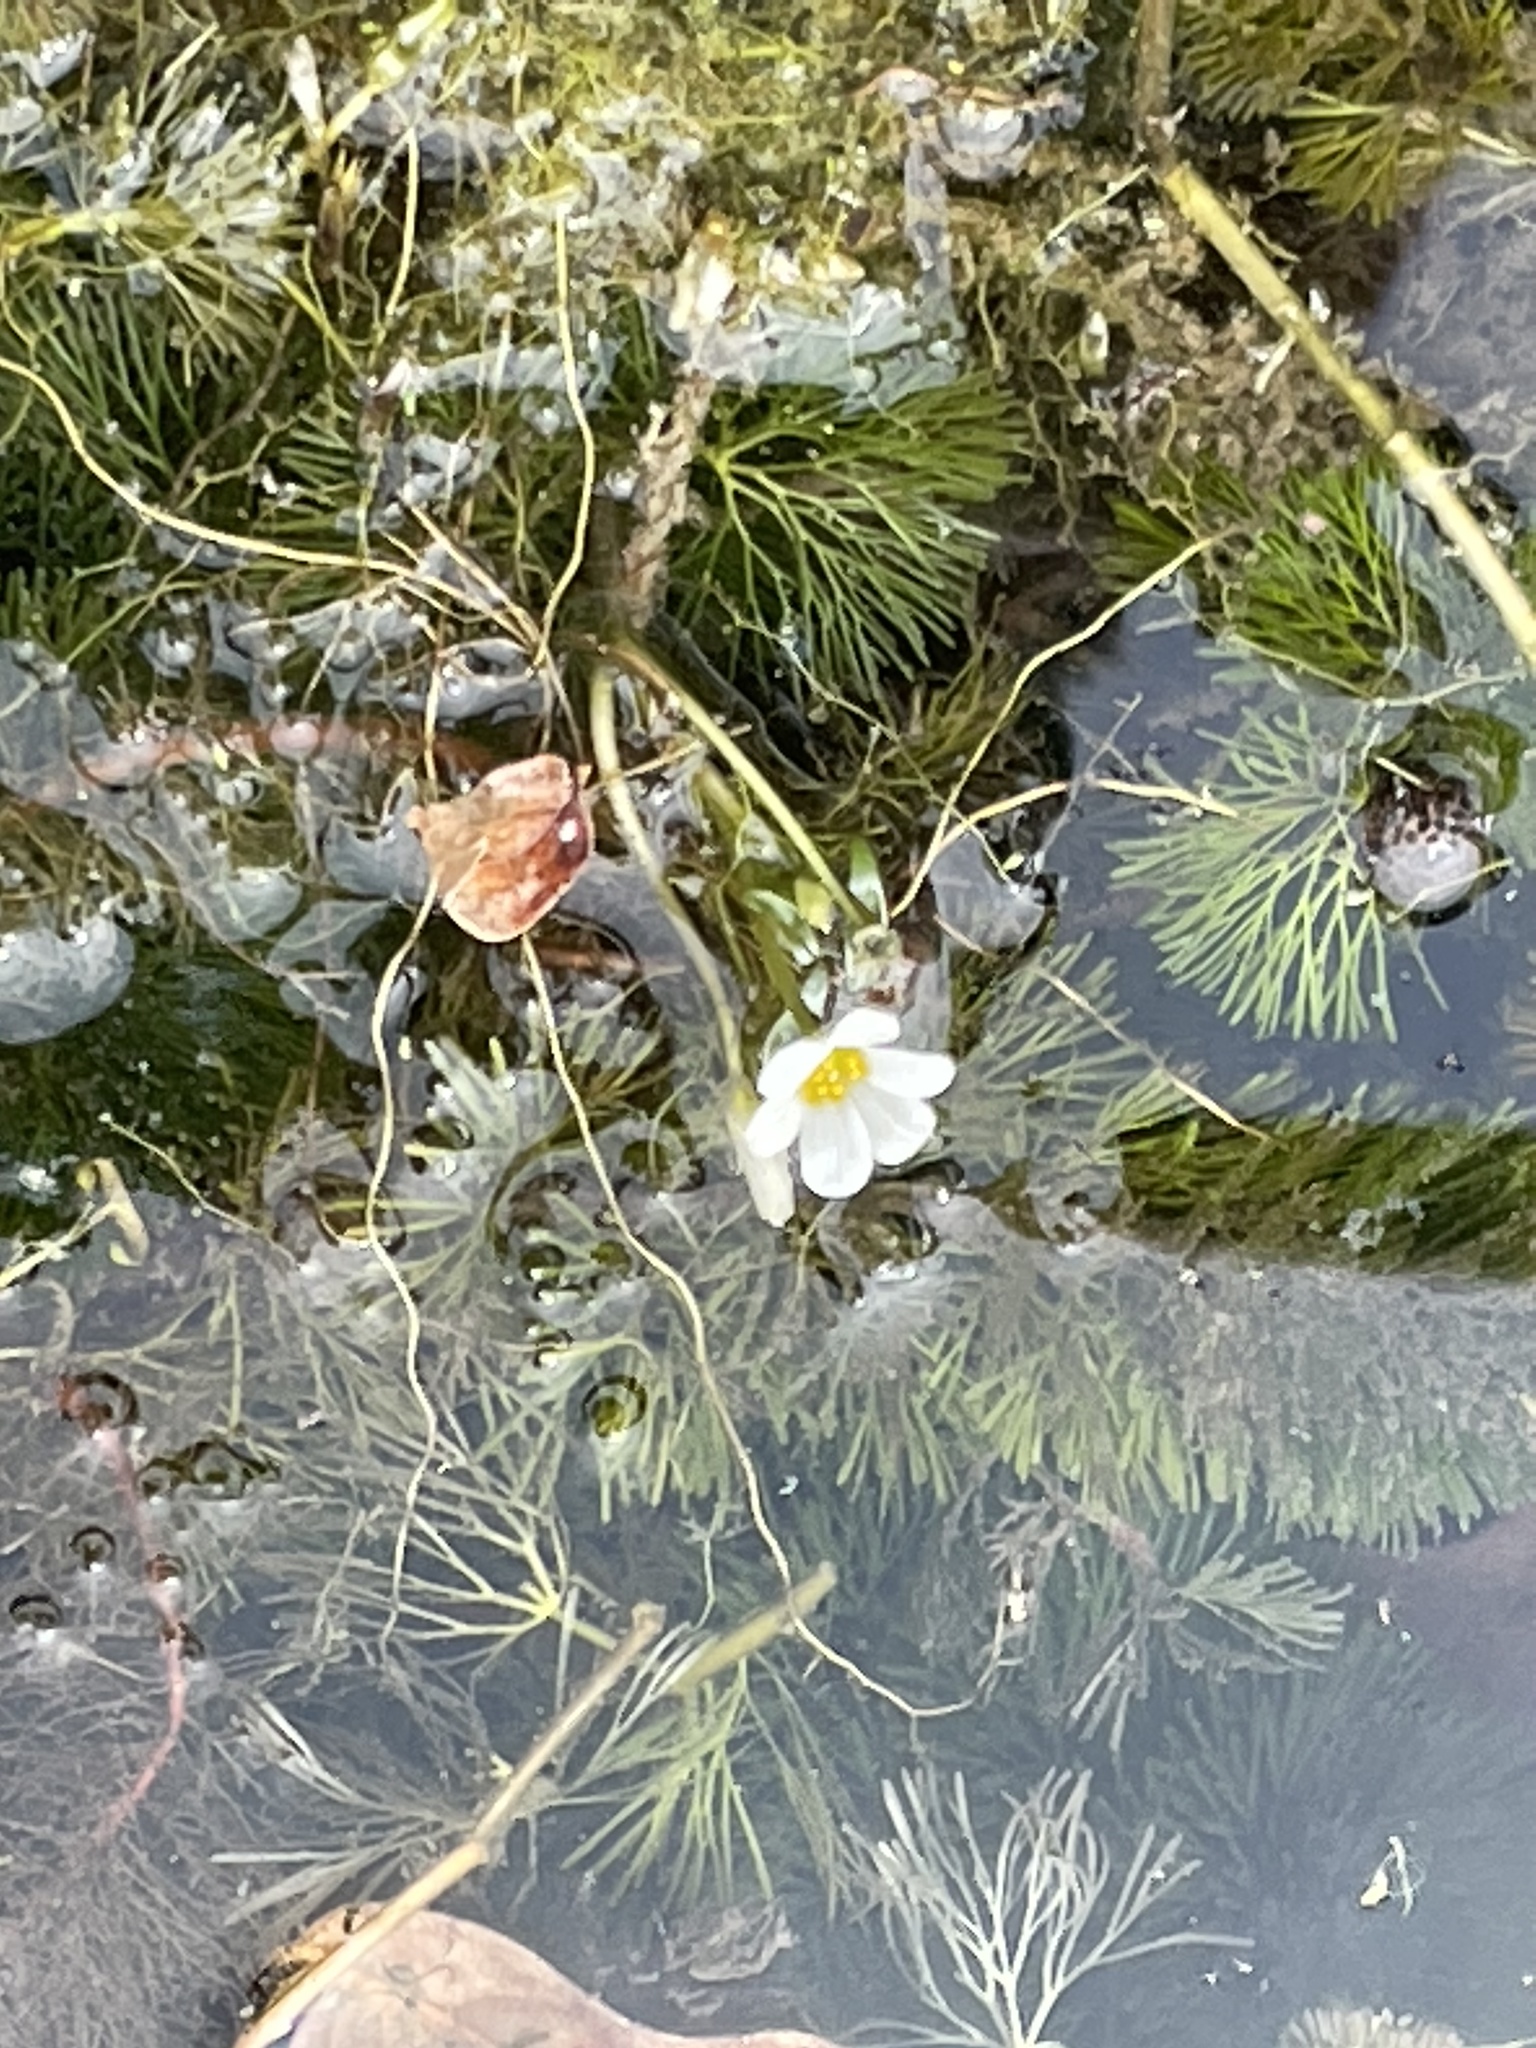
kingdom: Plantae
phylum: Tracheophyta
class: Magnoliopsida
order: Nymphaeales
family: Cabombaceae
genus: Cabomba
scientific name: Cabomba caroliniana
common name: Fanwort
